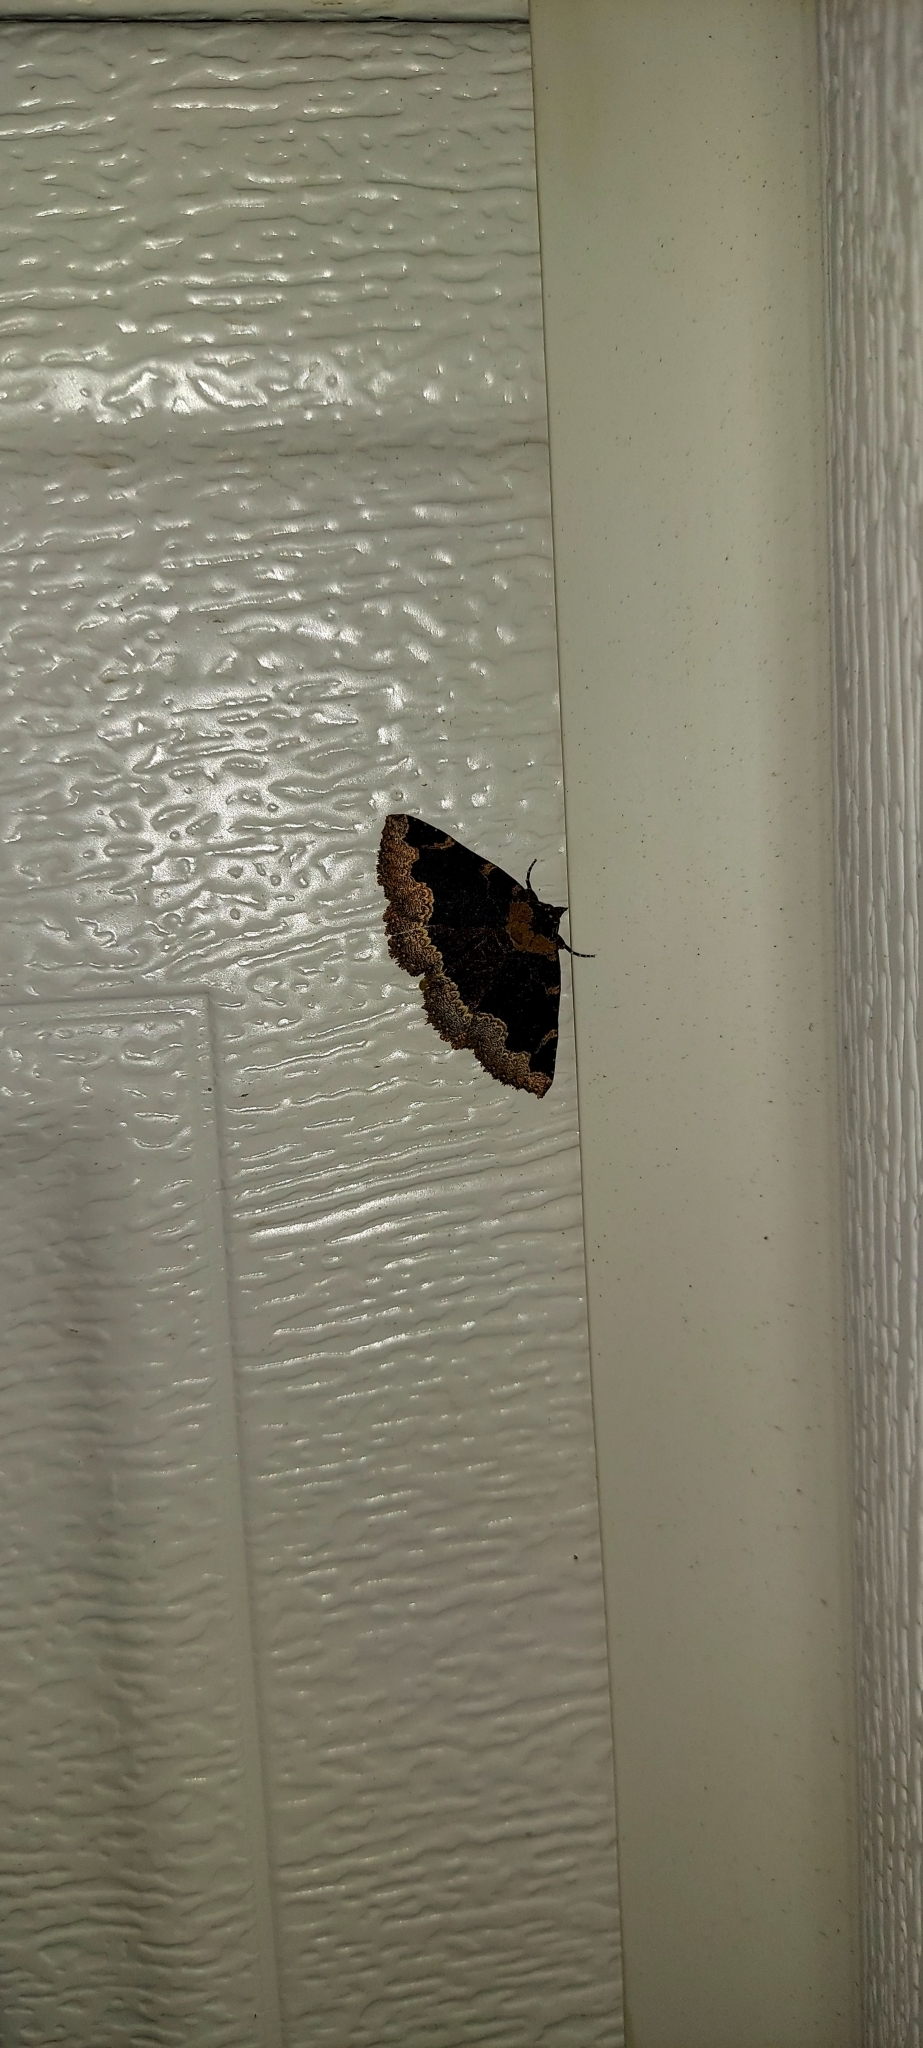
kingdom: Animalia
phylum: Arthropoda
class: Insecta
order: Lepidoptera
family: Erebidae
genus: Zale
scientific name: Zale horrida
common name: Horrid zale moth
